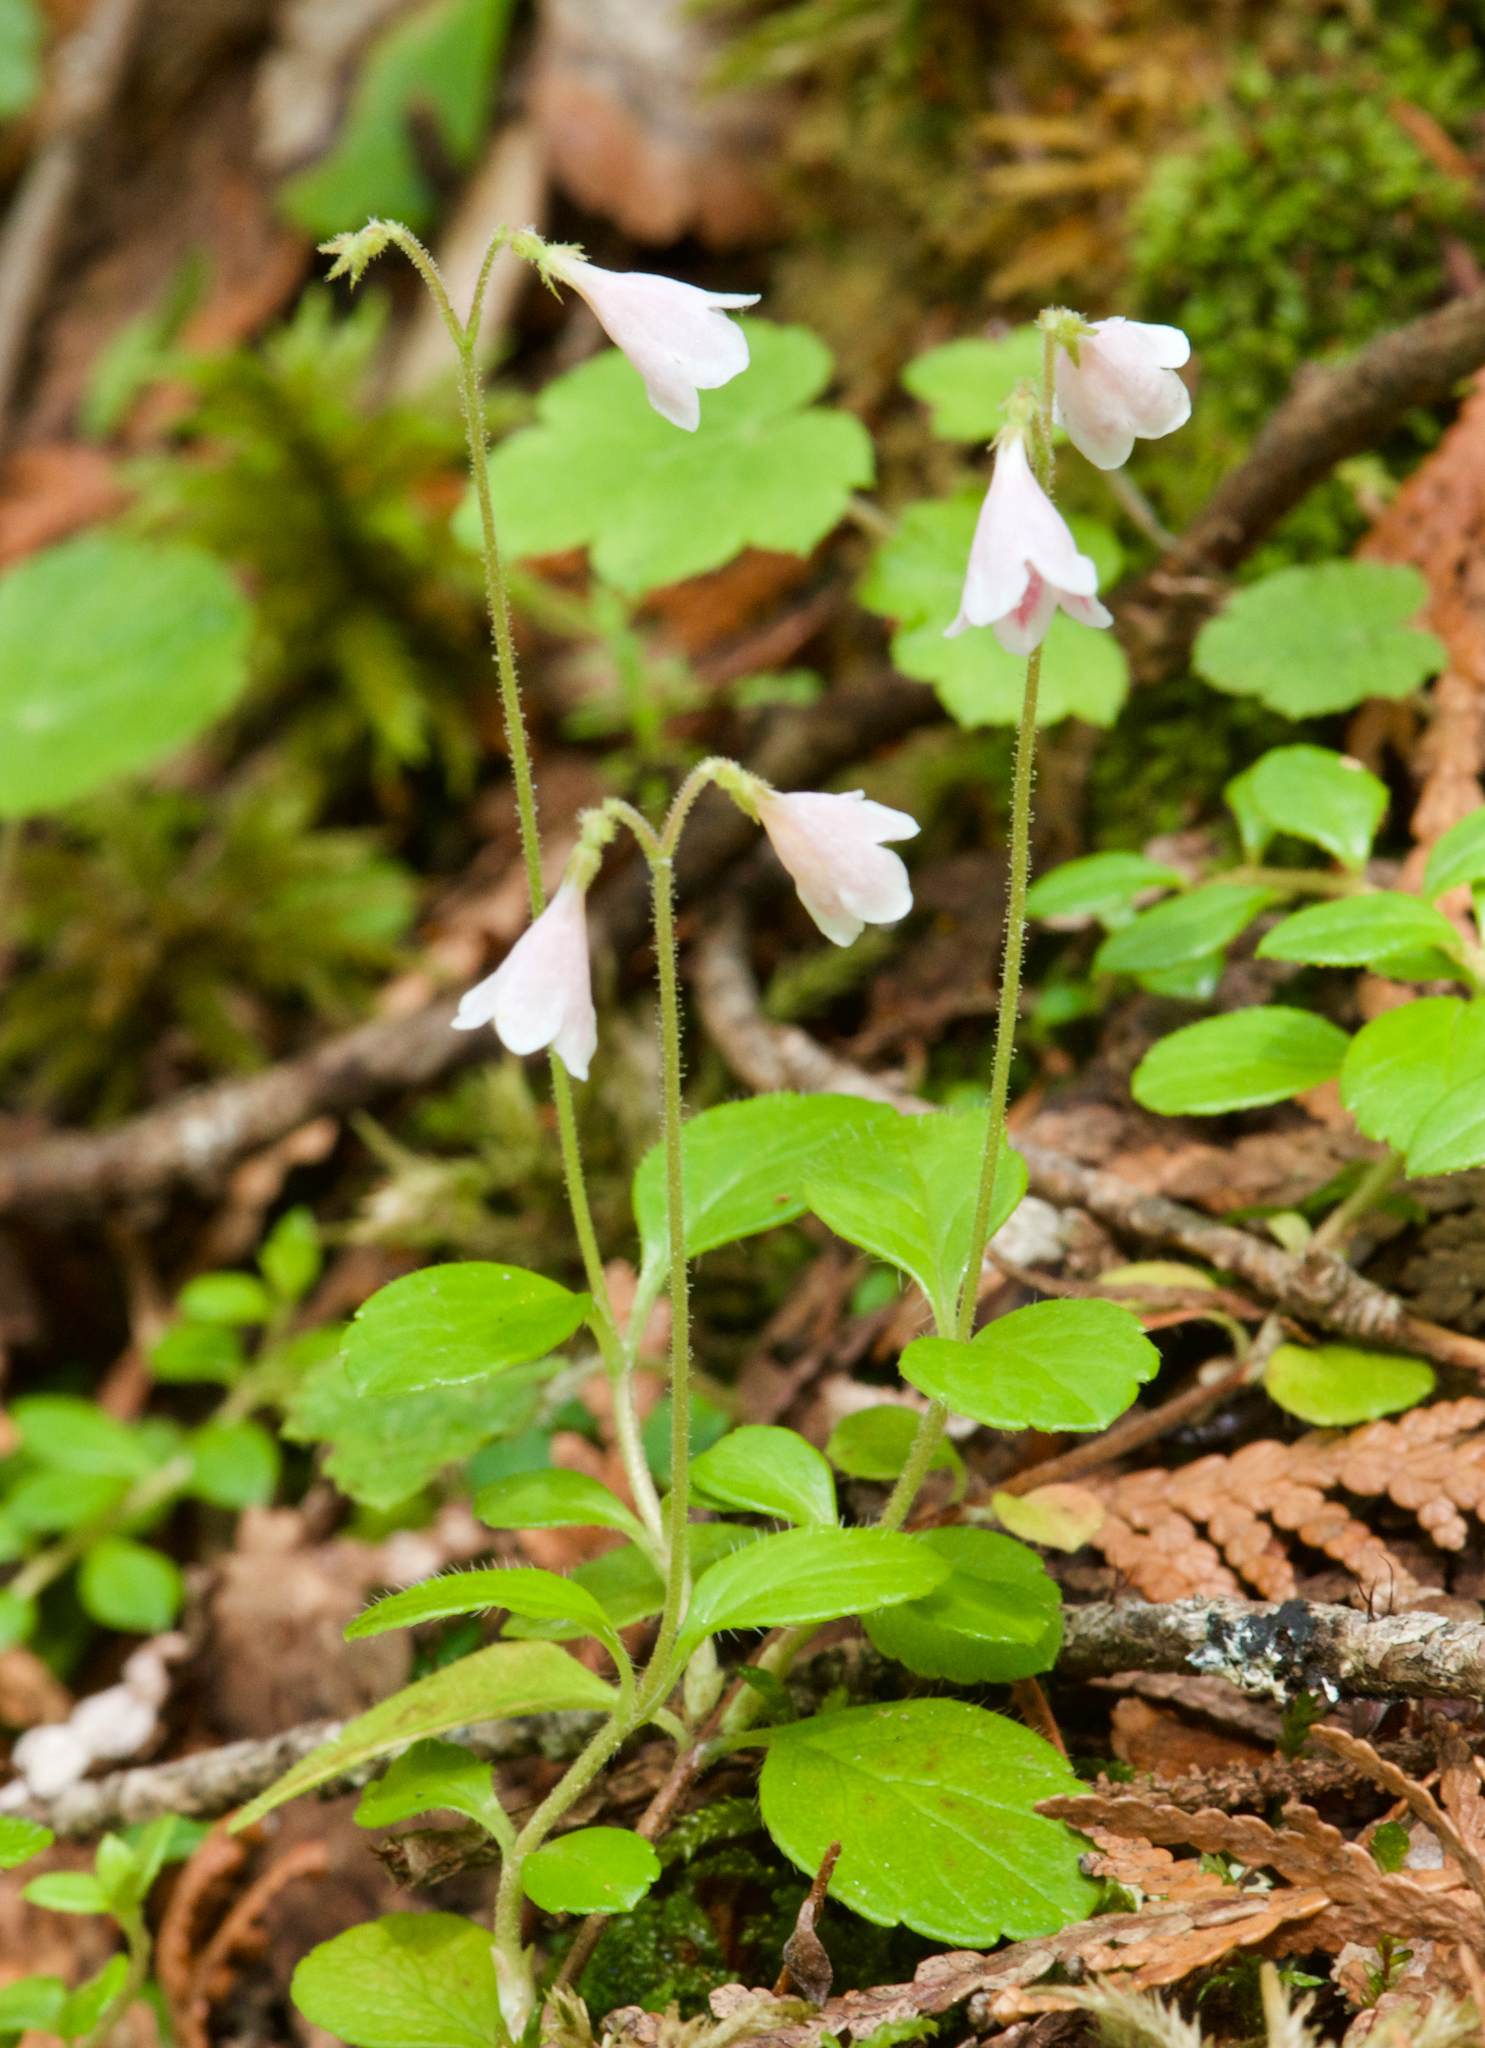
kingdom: Plantae
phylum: Tracheophyta
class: Magnoliopsida
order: Dipsacales
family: Caprifoliaceae
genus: Linnaea
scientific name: Linnaea borealis
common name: Twinflower
